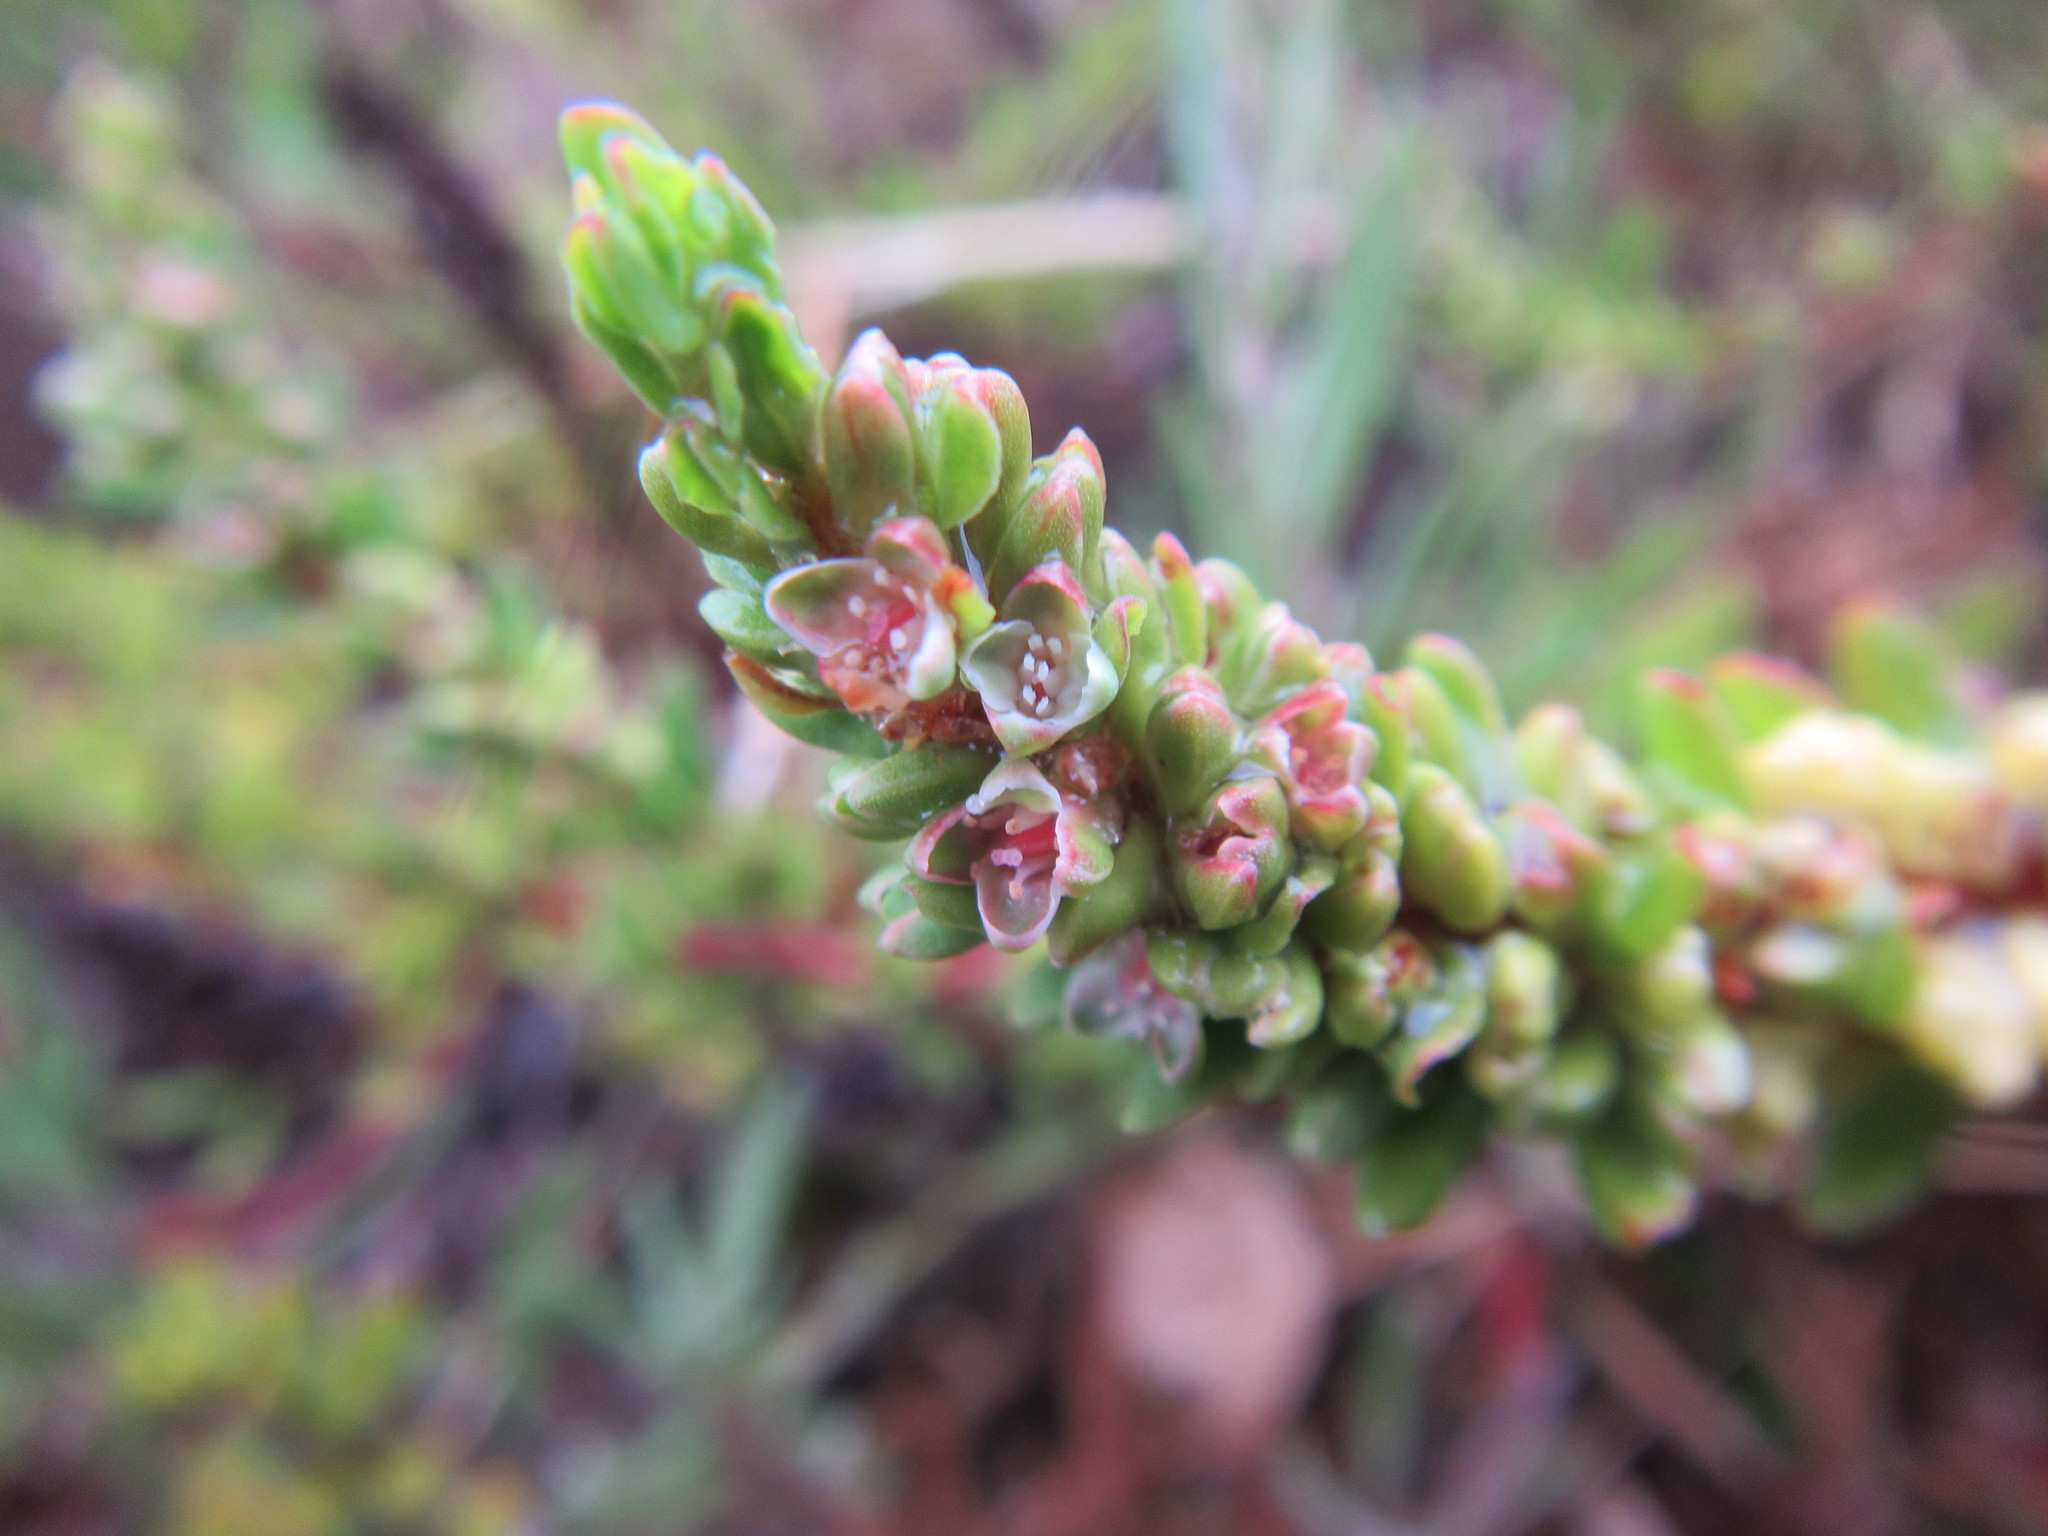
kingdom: Plantae
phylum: Tracheophyta
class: Magnoliopsida
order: Caryophyllales
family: Polygonaceae
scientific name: Polygonaceae
